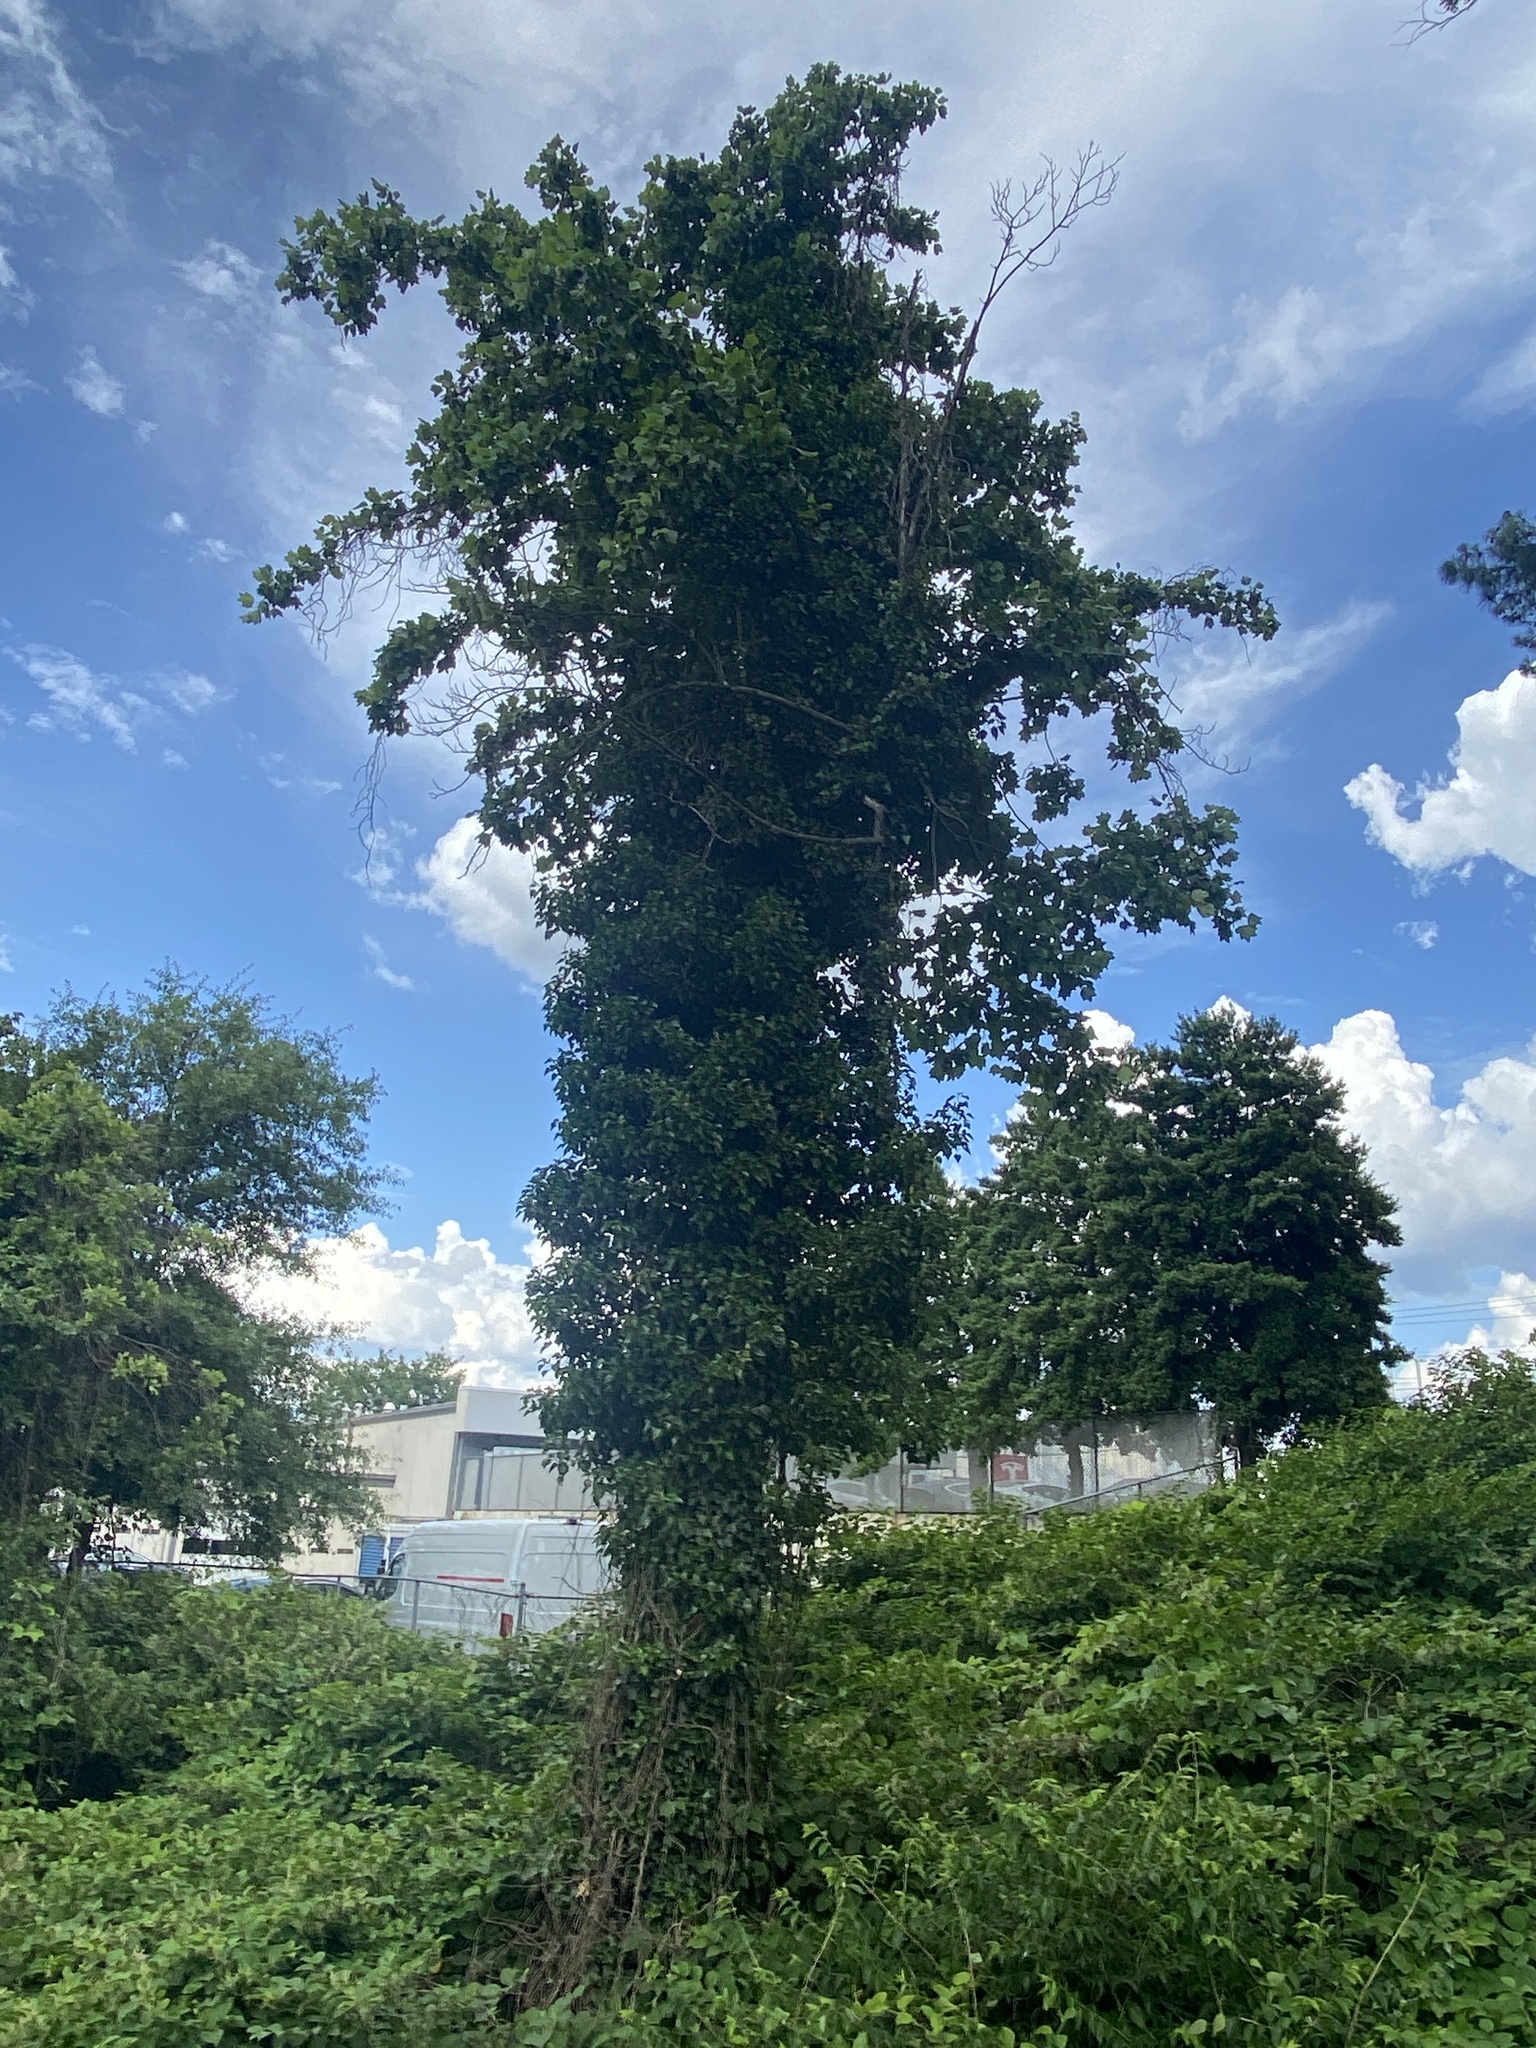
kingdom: Plantae
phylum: Tracheophyta
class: Magnoliopsida
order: Apiales
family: Araliaceae
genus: Hedera
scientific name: Hedera helix
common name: Ivy
